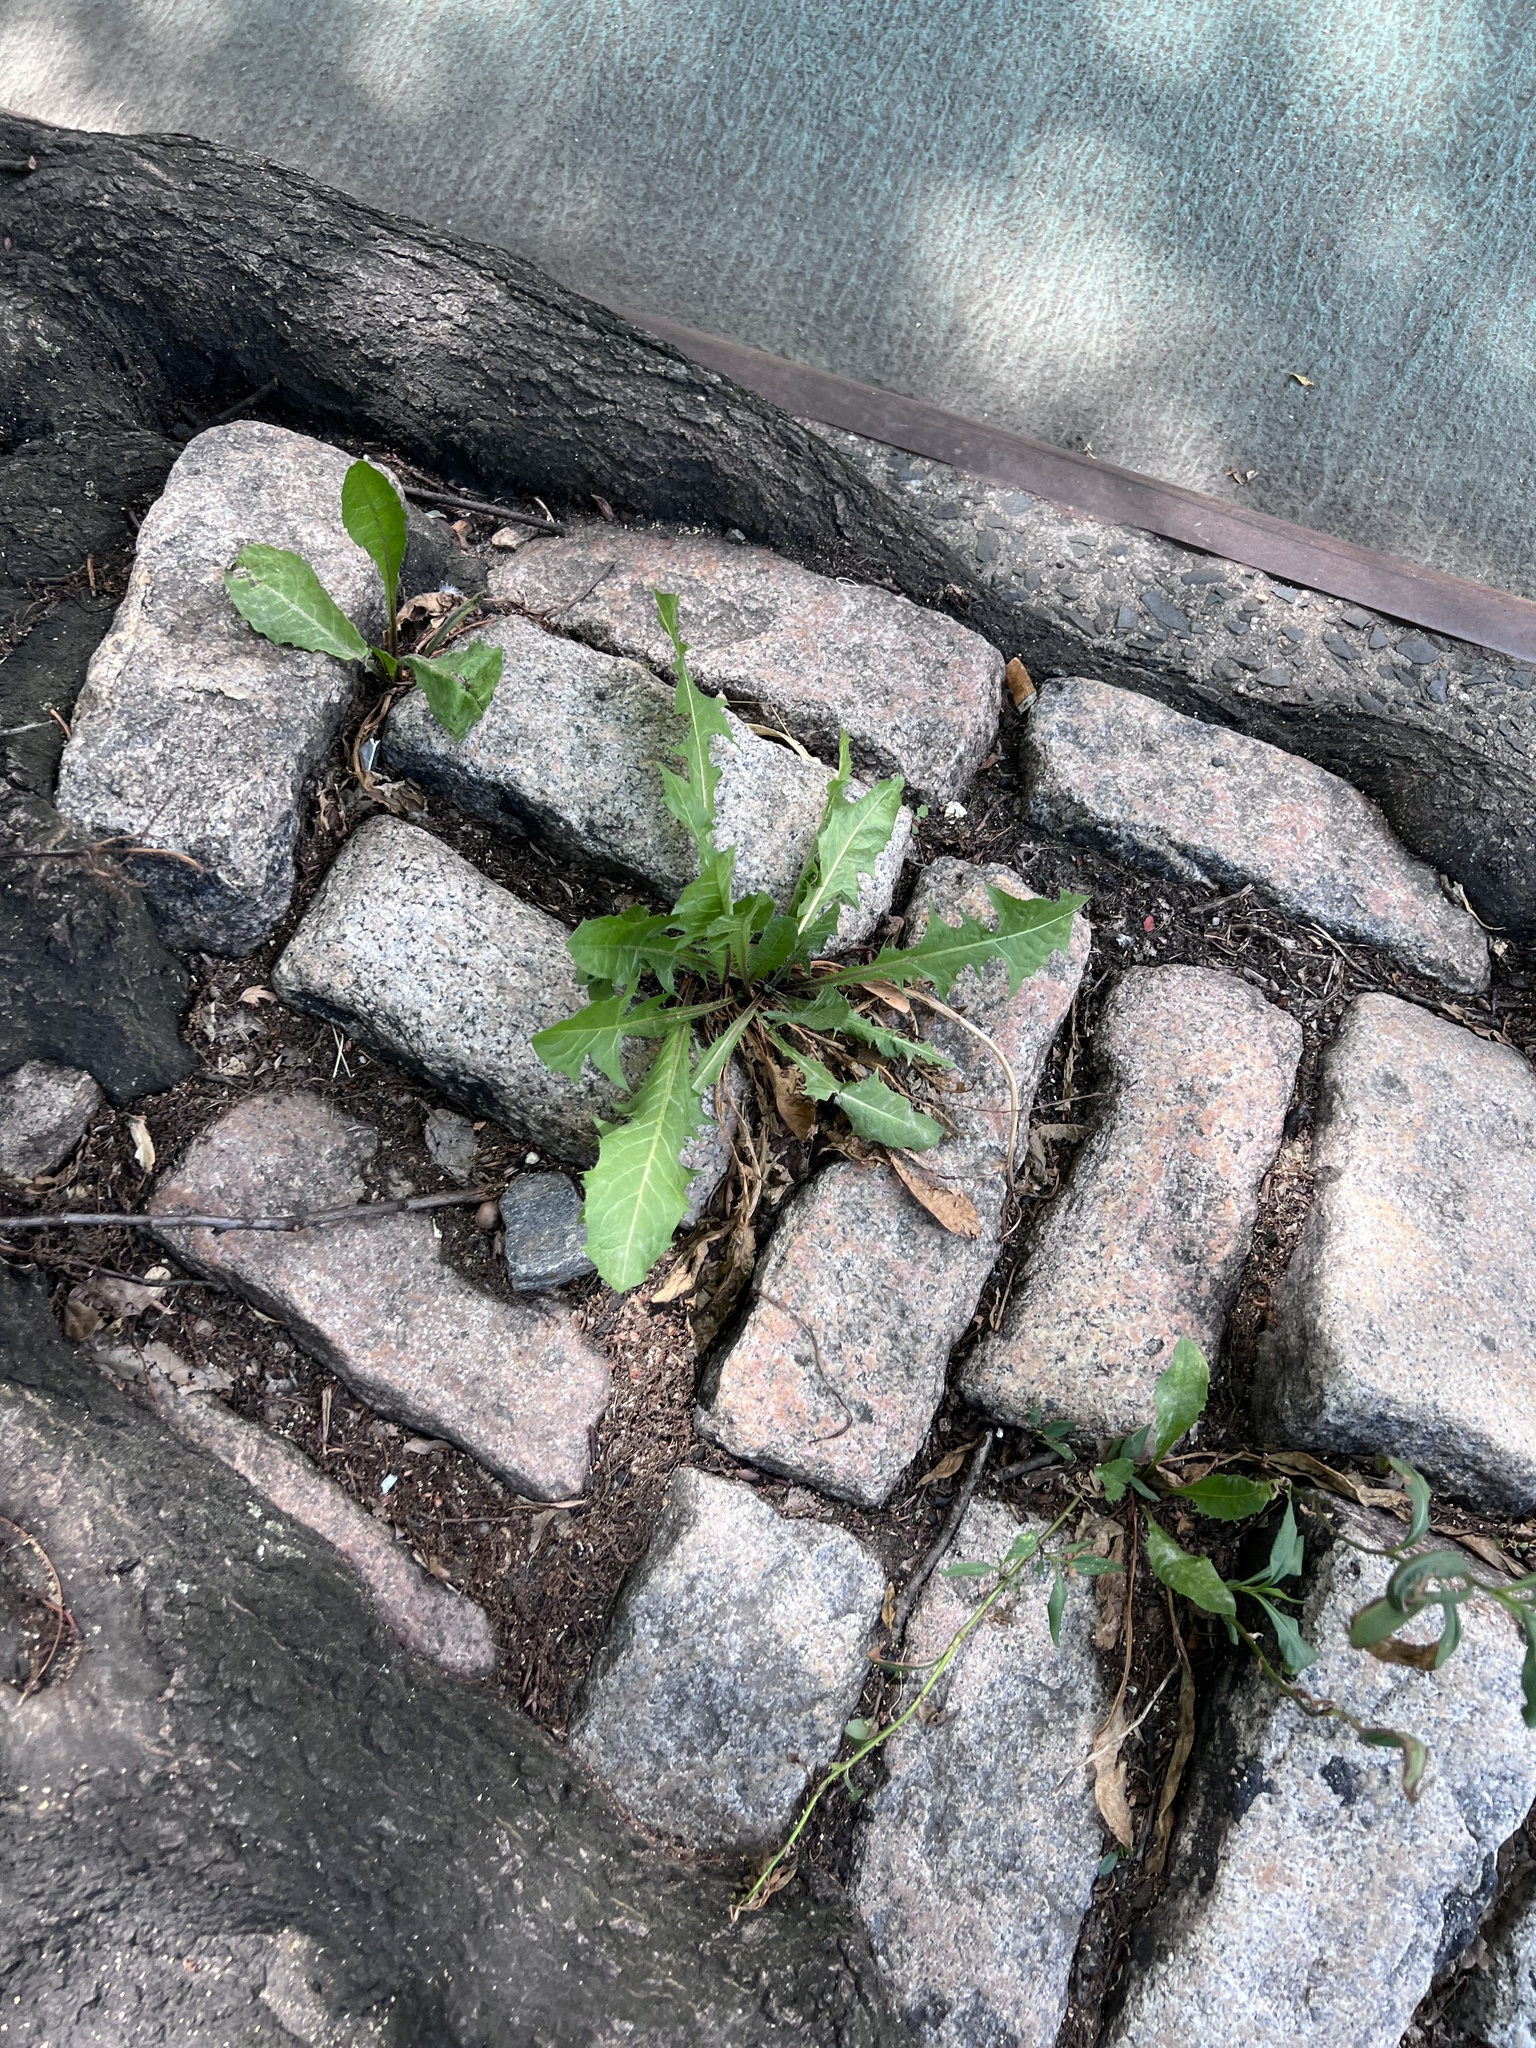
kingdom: Plantae
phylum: Tracheophyta
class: Magnoliopsida
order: Asterales
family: Asteraceae
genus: Taraxacum
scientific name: Taraxacum officinale
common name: Common dandelion
